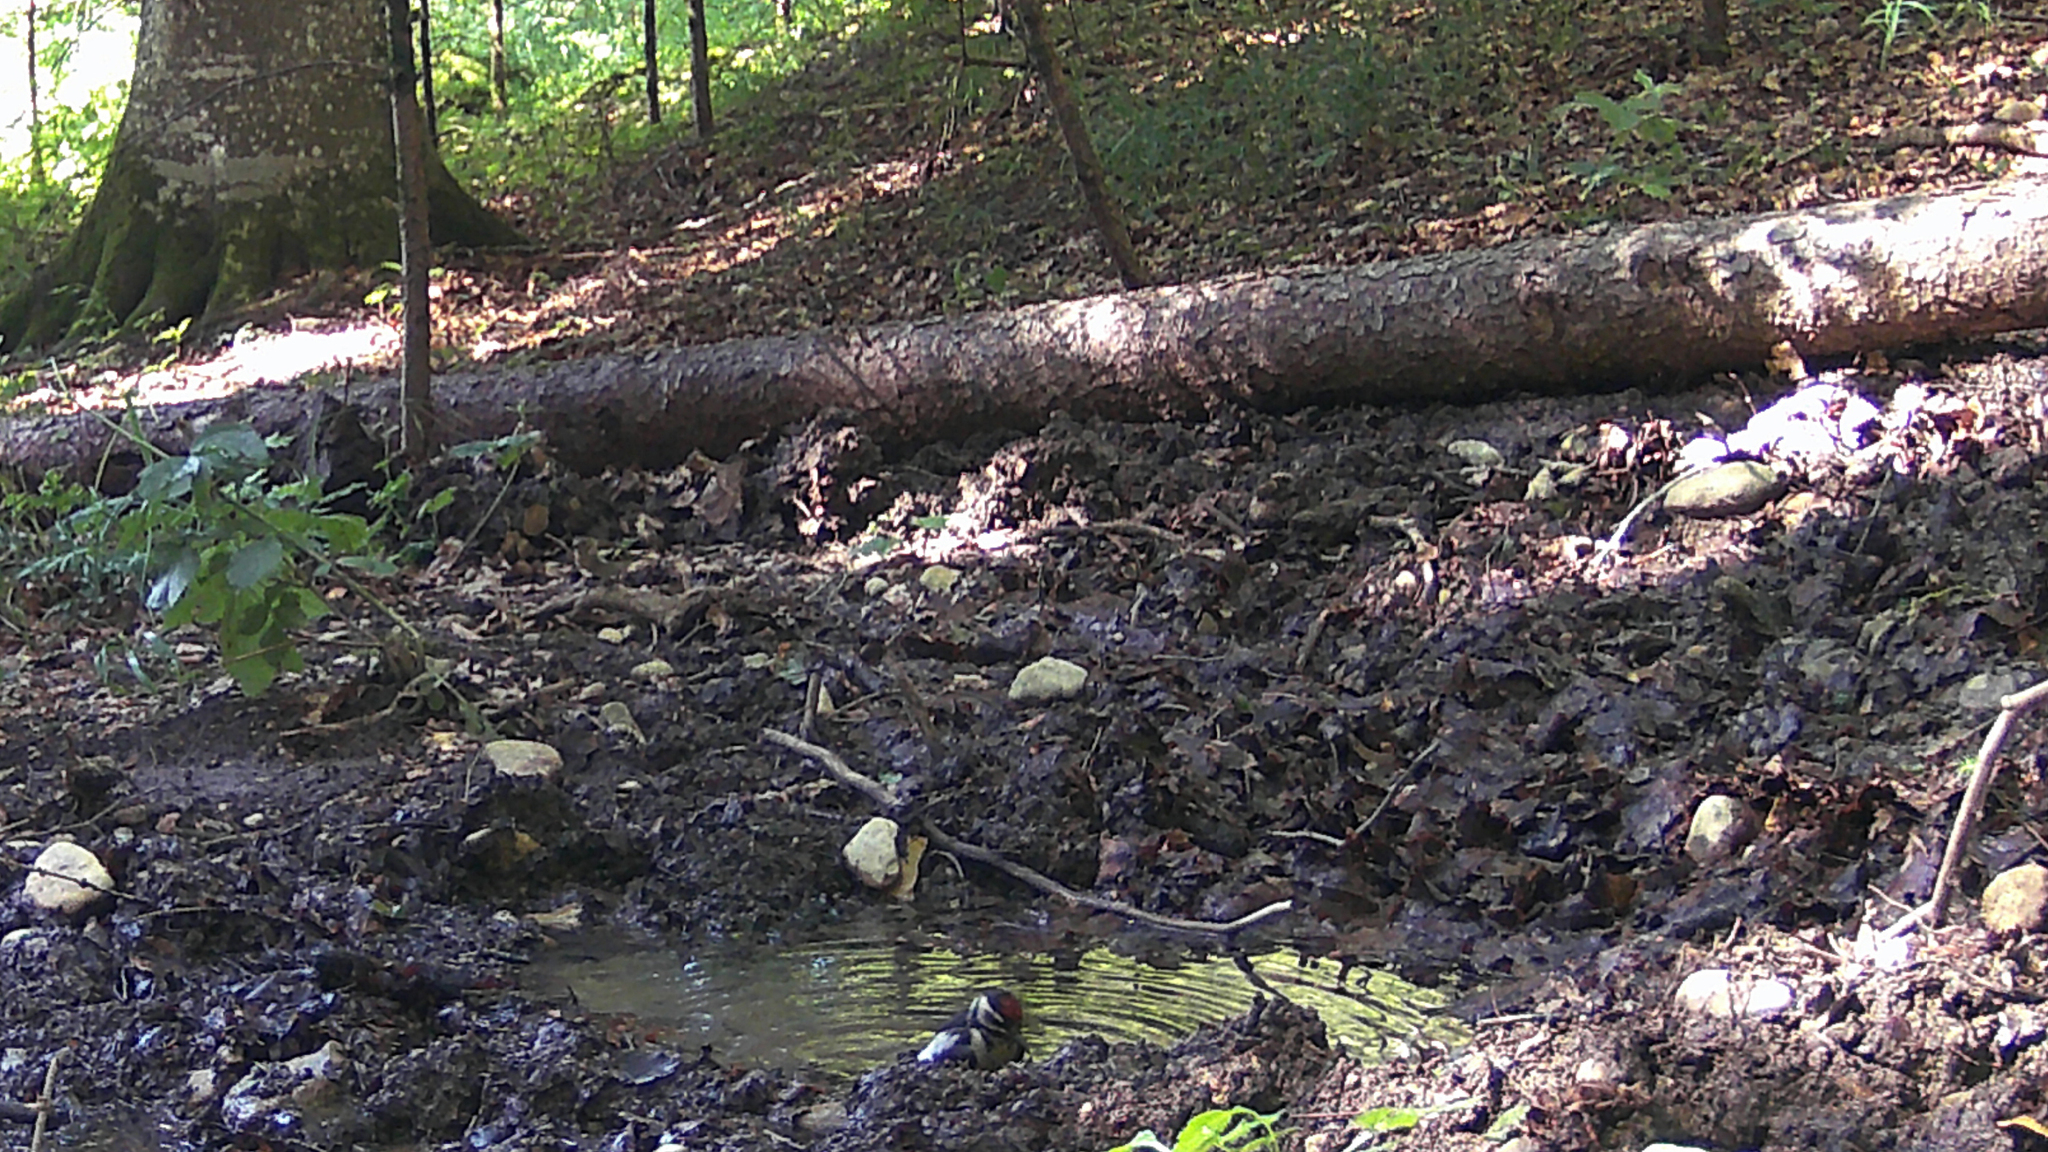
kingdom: Animalia
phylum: Chordata
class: Aves
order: Piciformes
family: Picidae
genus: Dendrocopos
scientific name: Dendrocopos major
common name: Great spotted woodpecker
